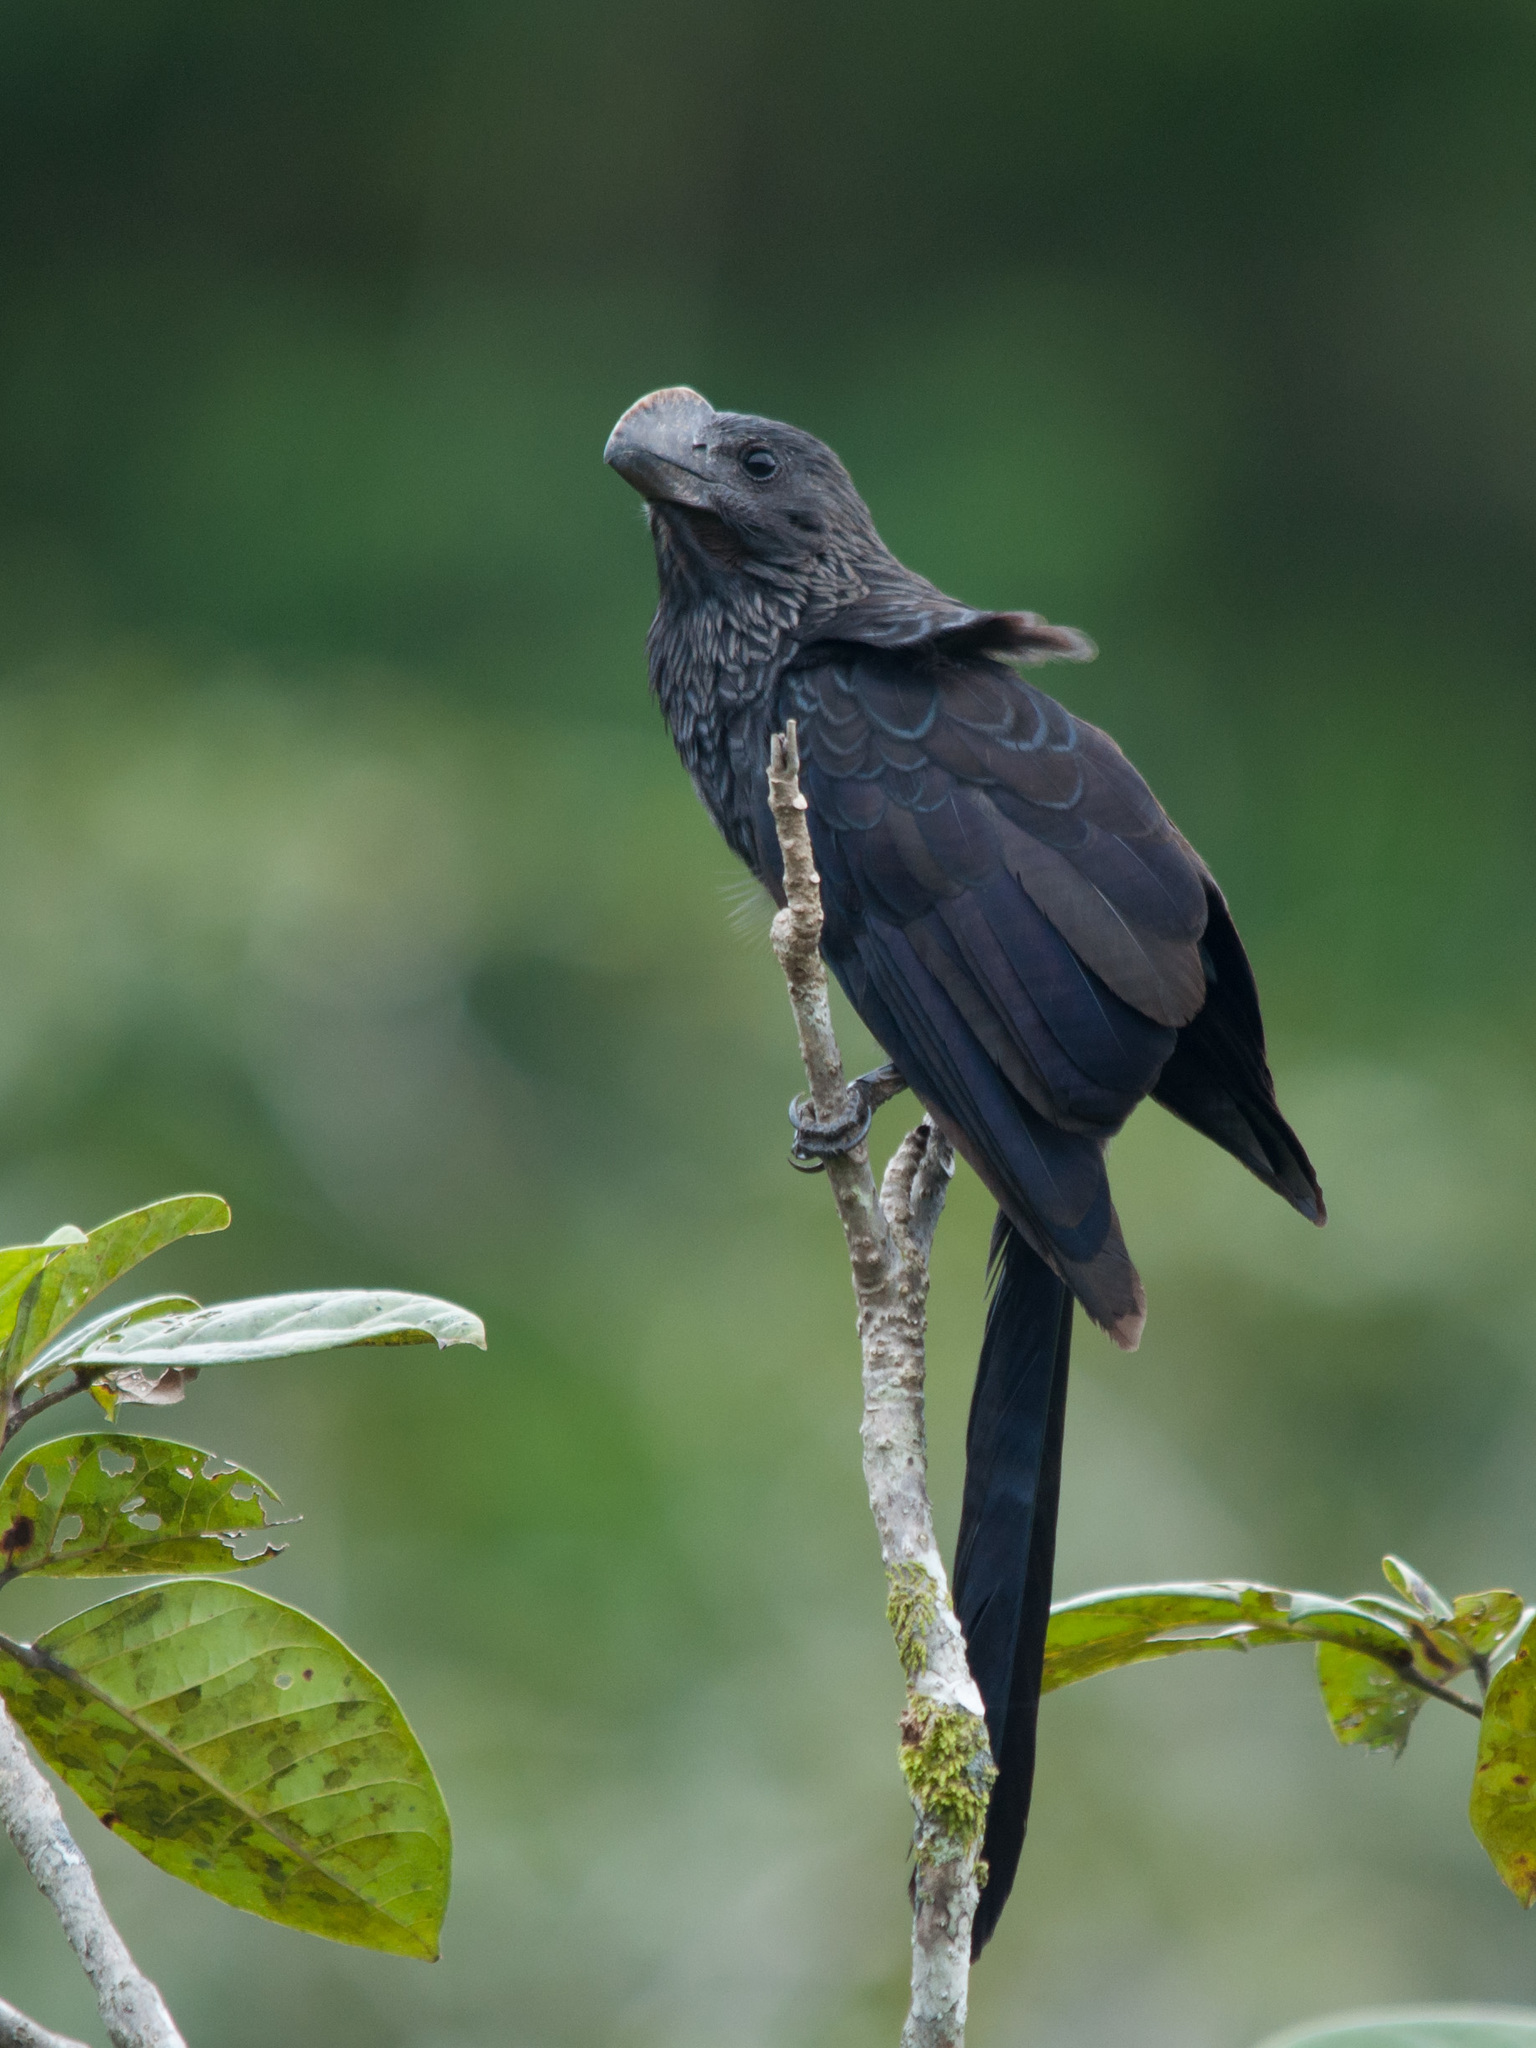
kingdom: Animalia
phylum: Chordata
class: Aves
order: Cuculiformes
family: Cuculidae
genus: Crotophaga
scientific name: Crotophaga ani
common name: Smooth-billed ani
